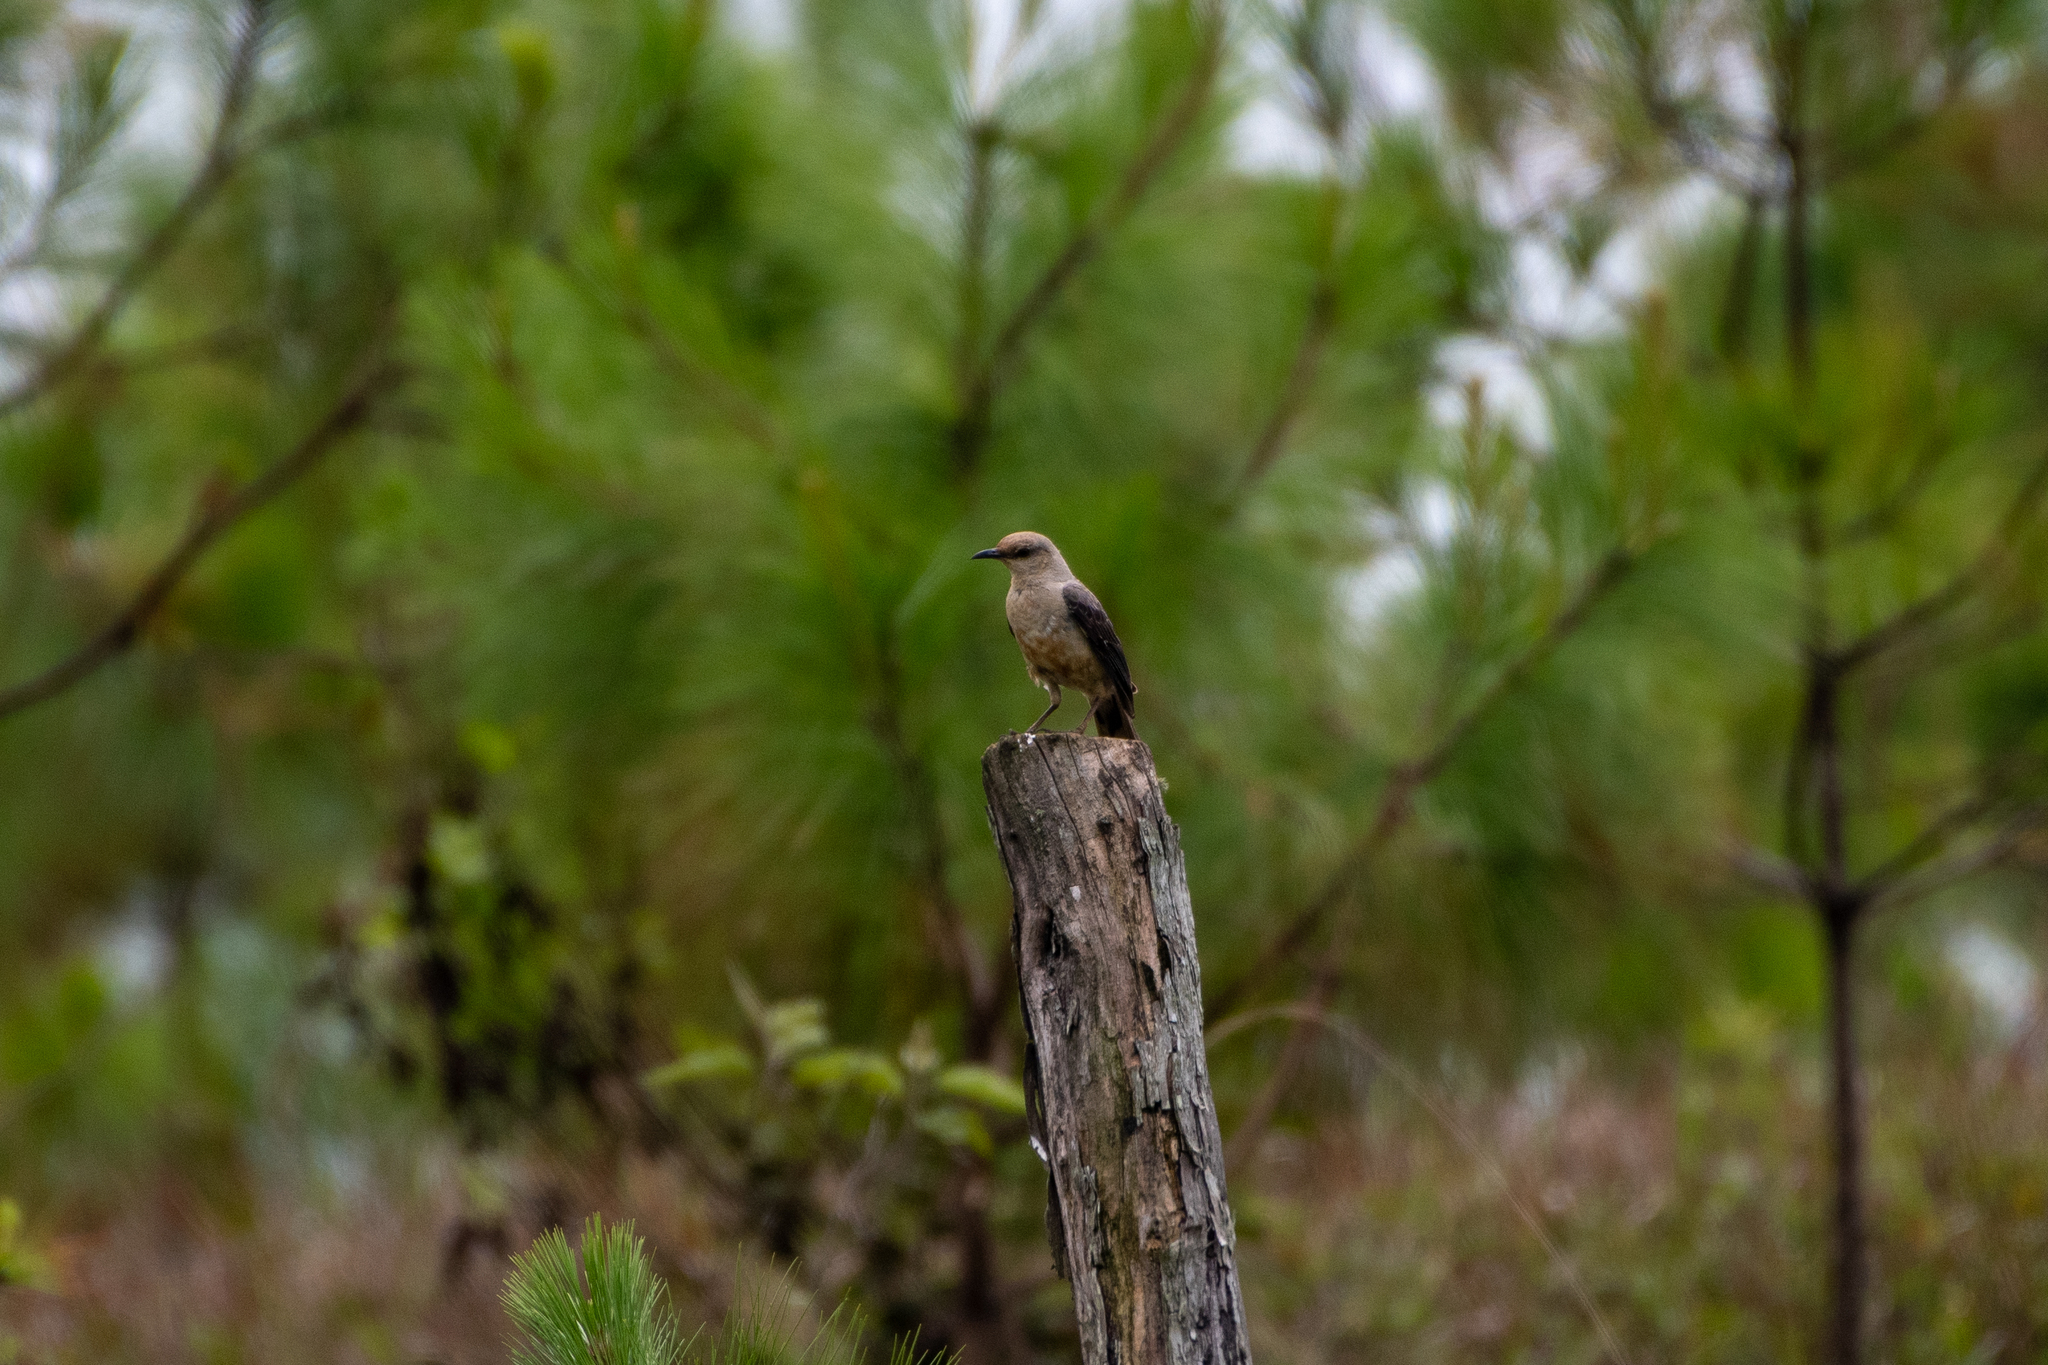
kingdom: Animalia
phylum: Chordata
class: Aves
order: Passeriformes
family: Mimidae
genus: Mimus
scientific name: Mimus gilvus
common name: Tropical mockingbird
